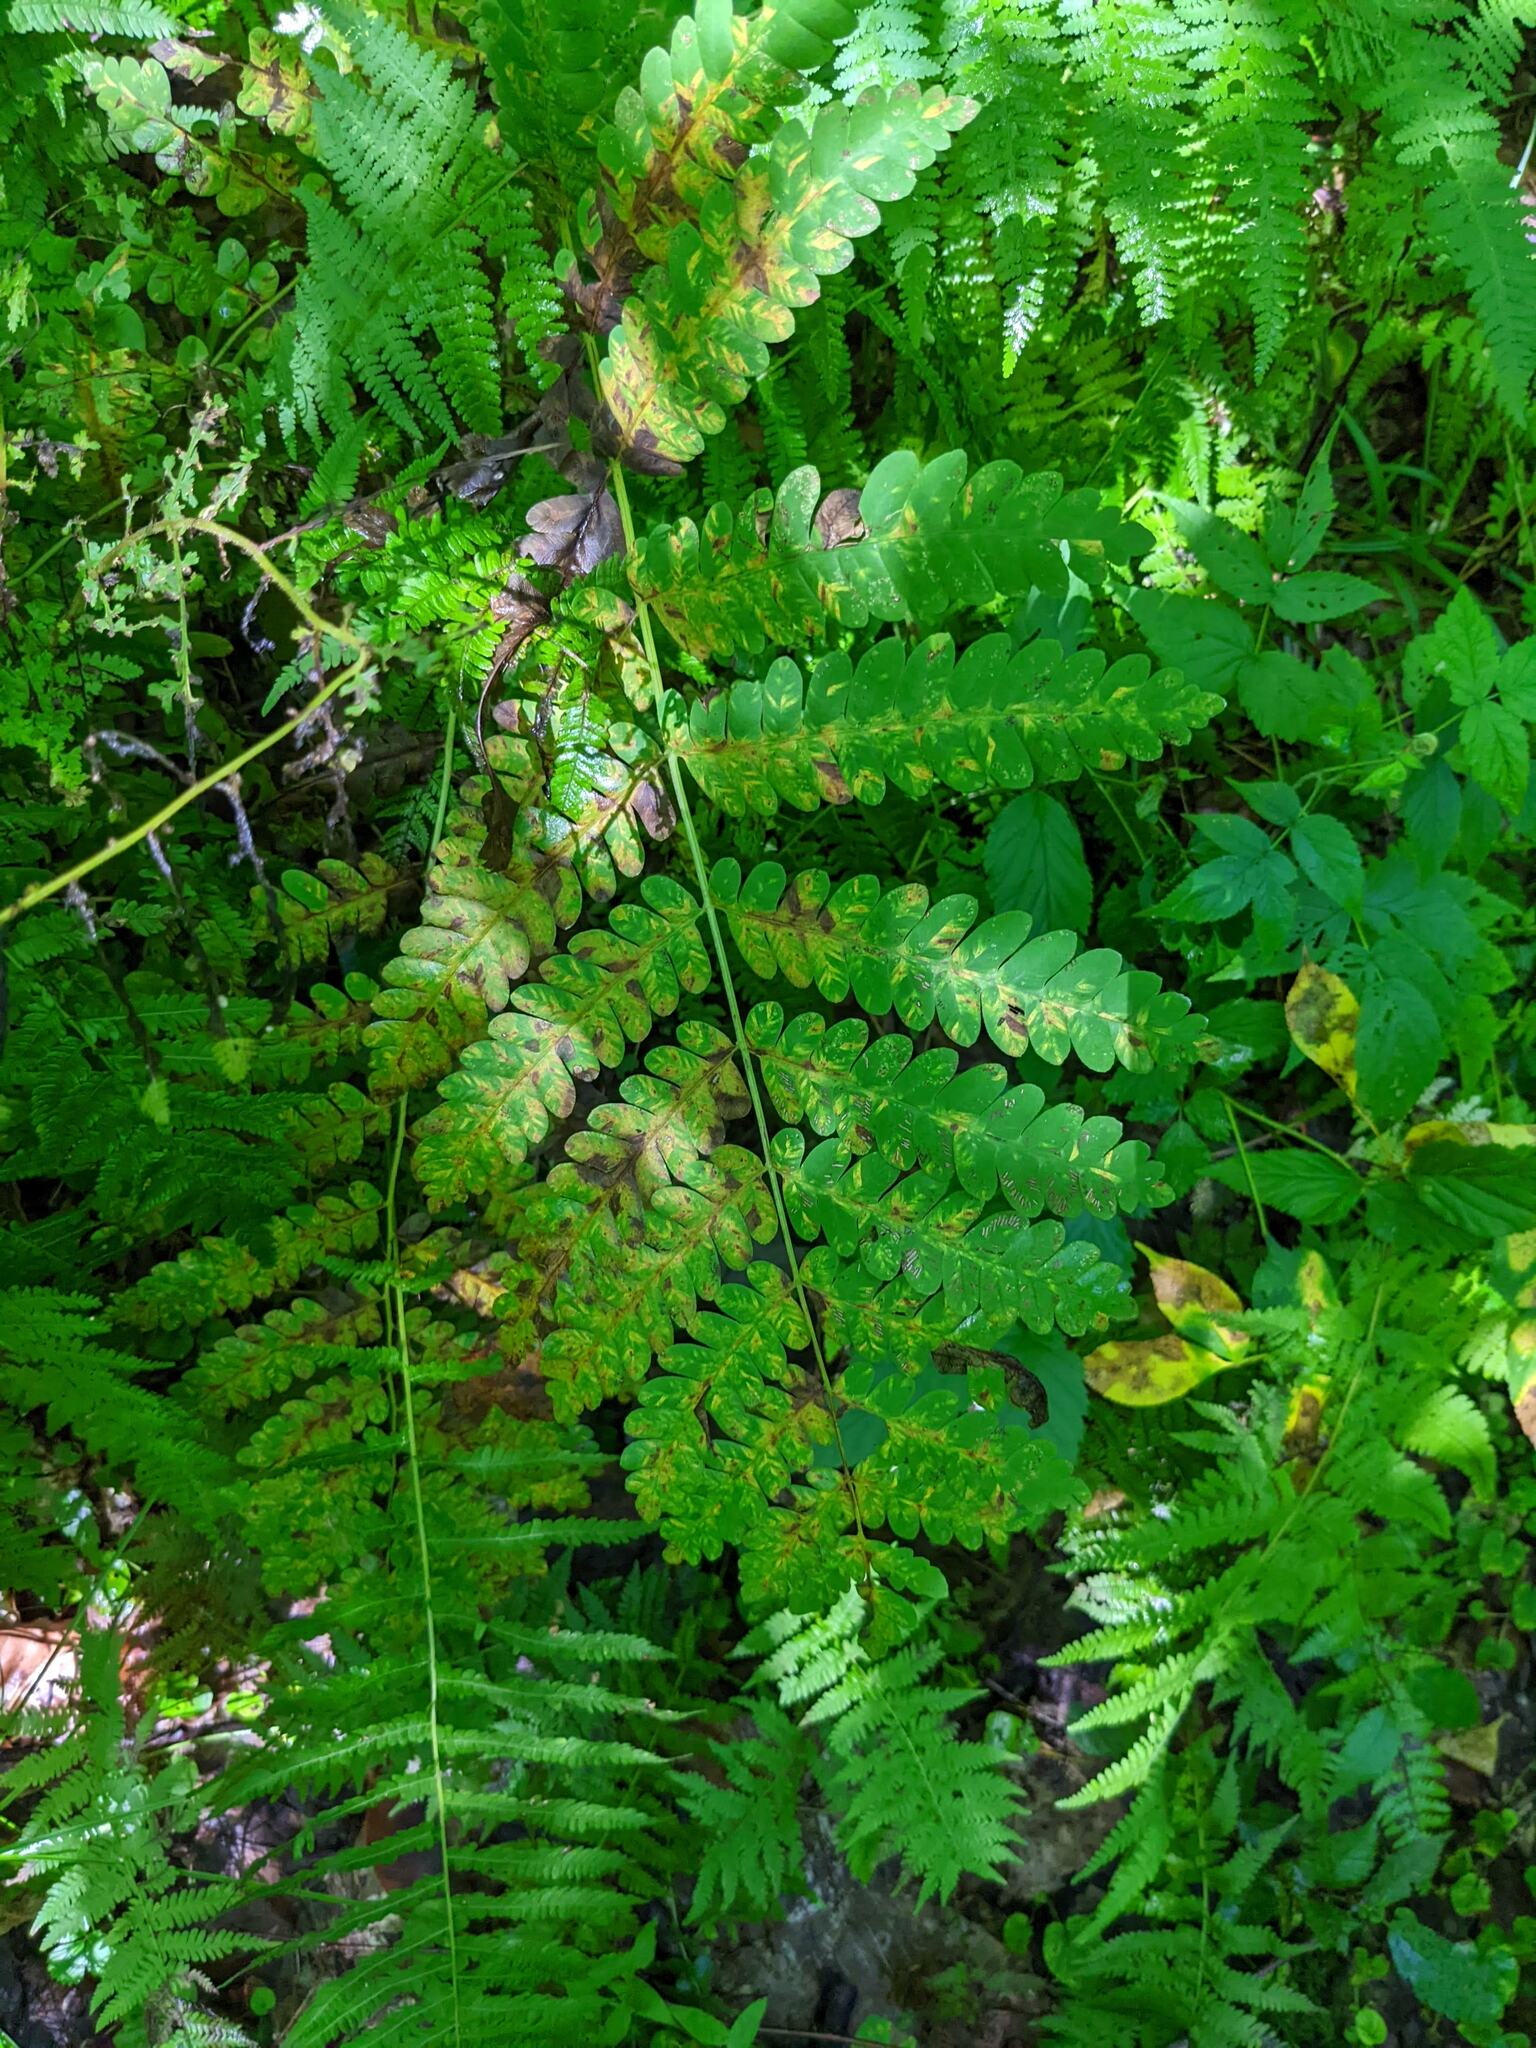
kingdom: Plantae
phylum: Tracheophyta
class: Polypodiopsida
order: Osmundales
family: Osmundaceae
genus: Claytosmunda
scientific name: Claytosmunda claytoniana
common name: Clayton's fern
